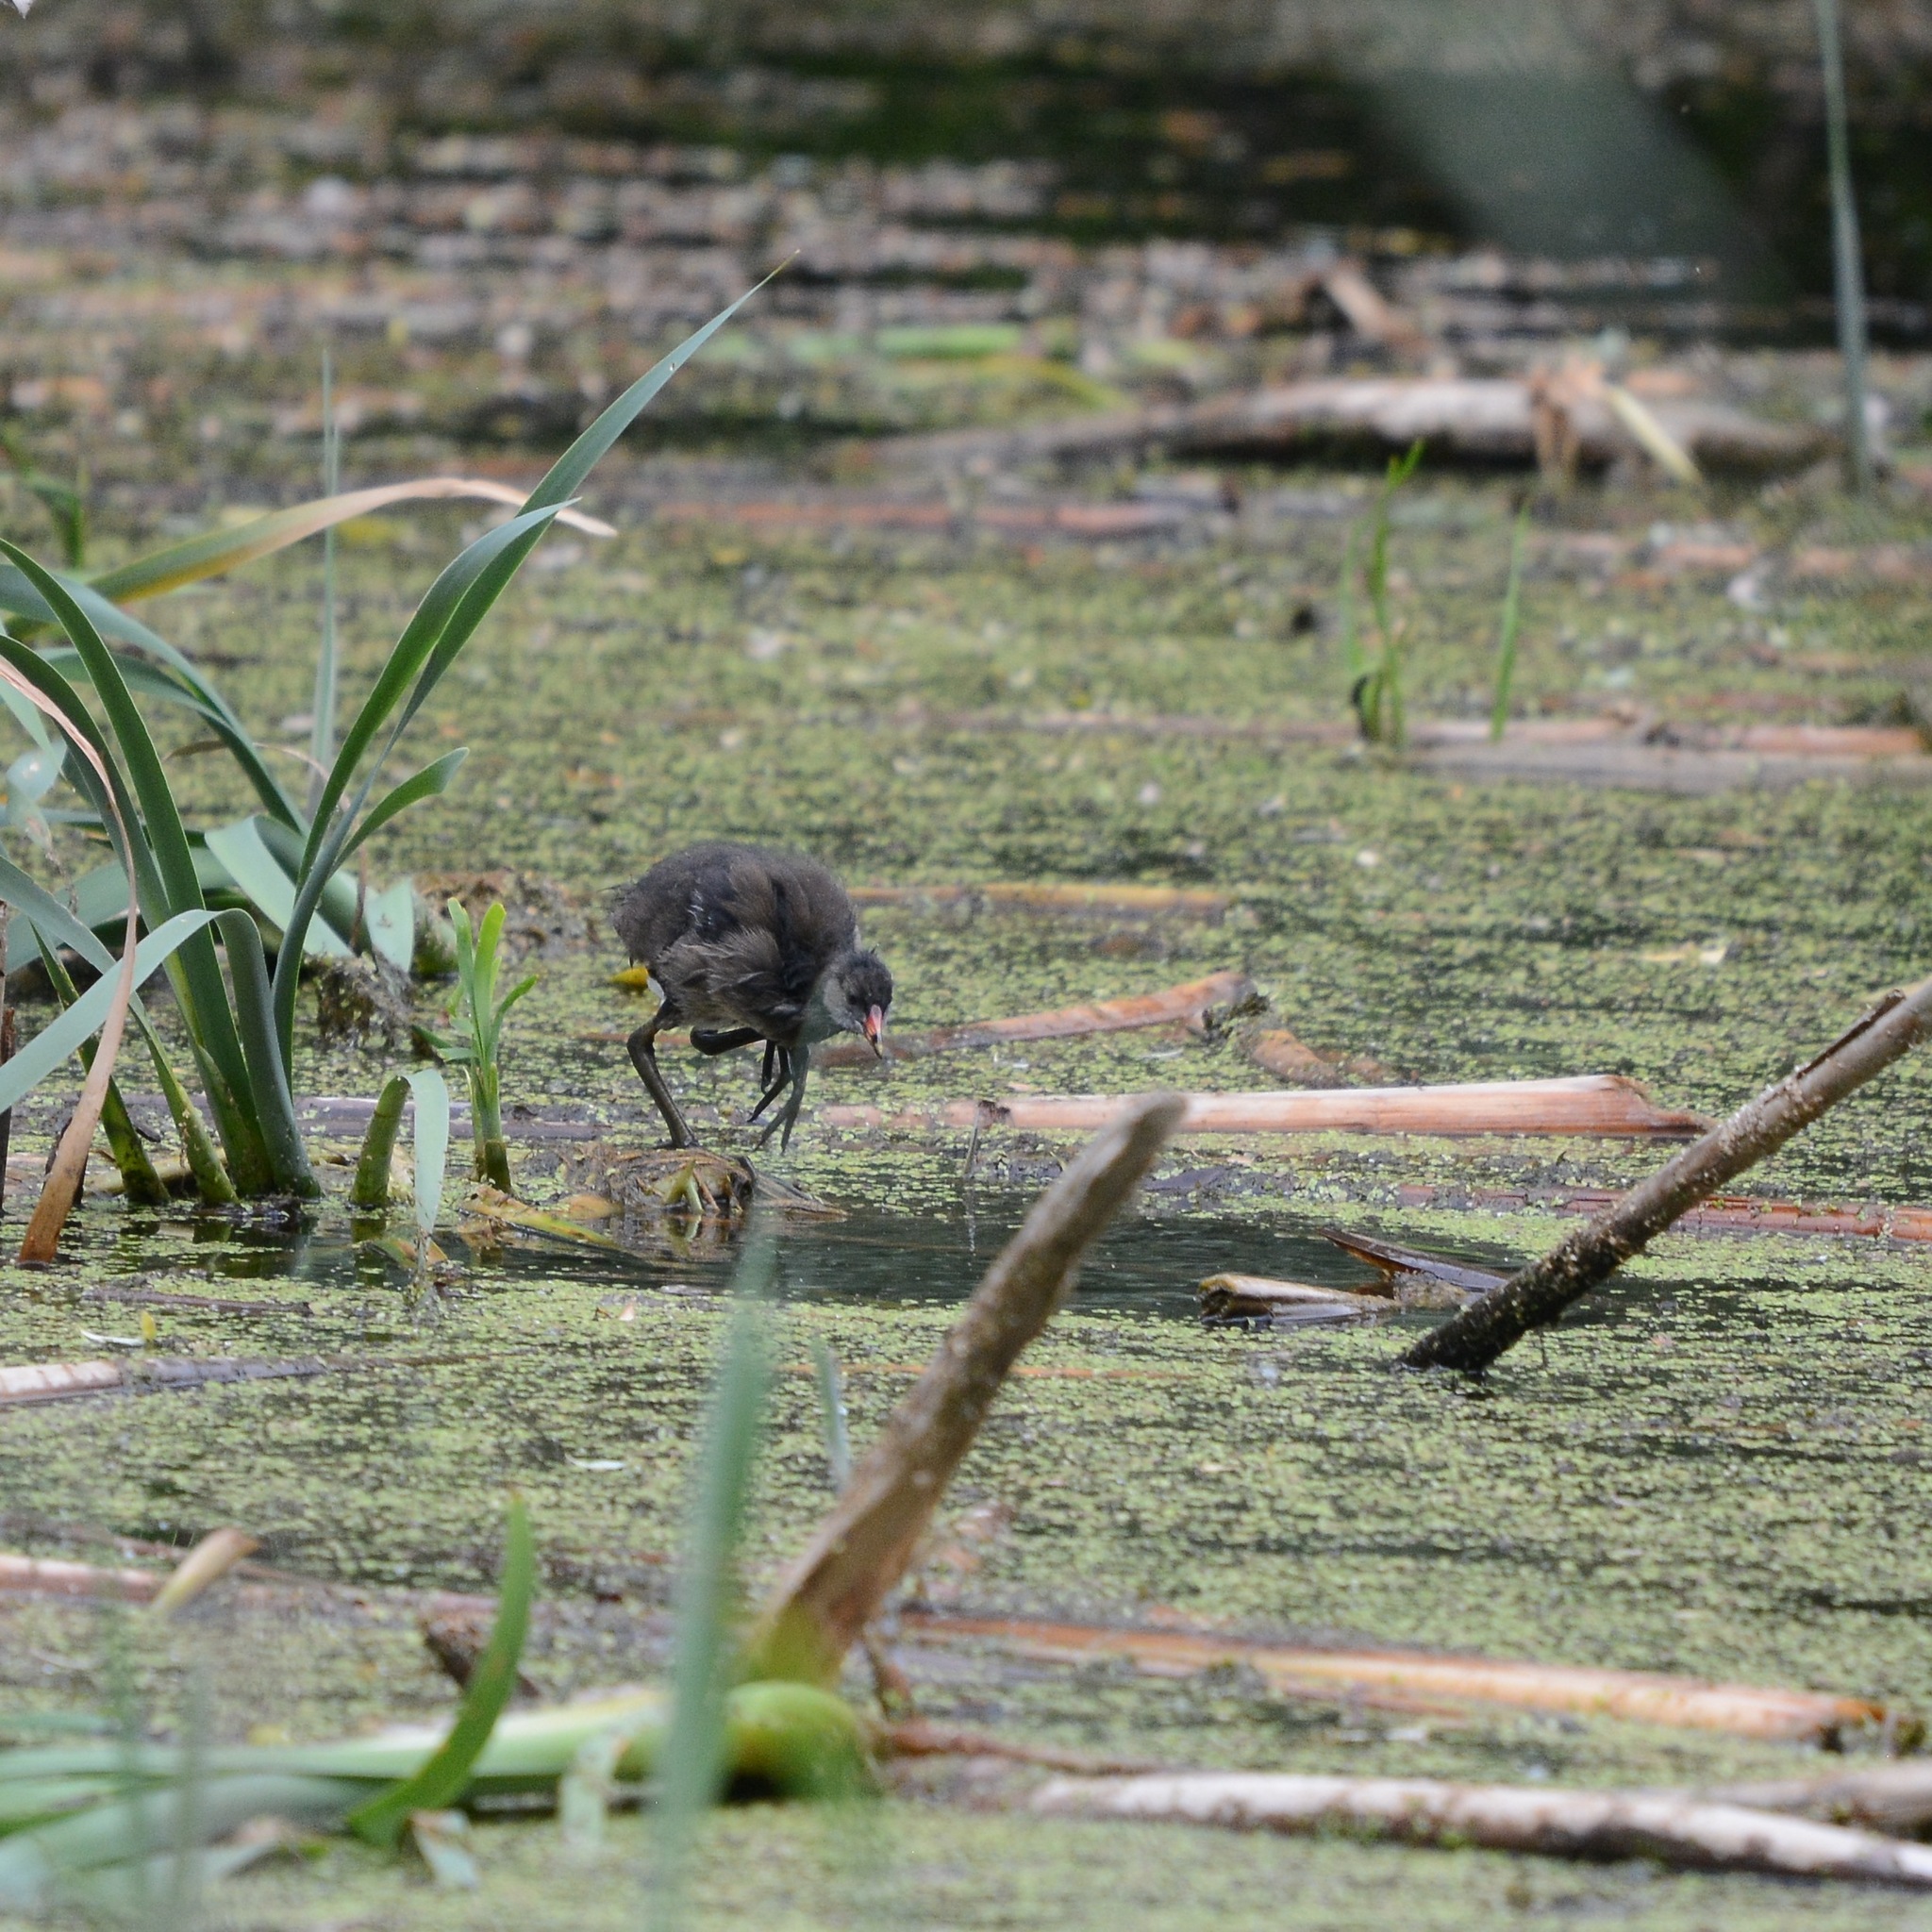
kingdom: Animalia
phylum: Chordata
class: Aves
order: Gruiformes
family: Rallidae
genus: Gallinula
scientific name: Gallinula chloropus
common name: Common moorhen
